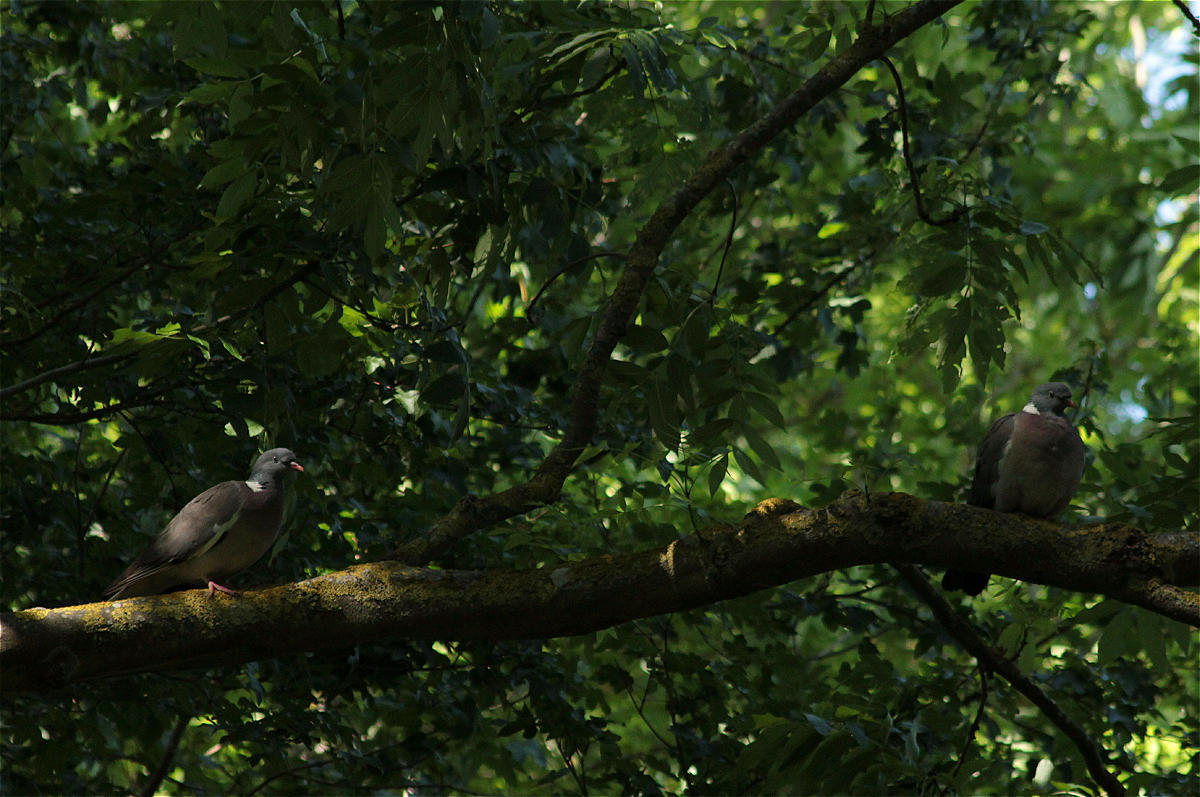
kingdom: Animalia
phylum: Chordata
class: Aves
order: Columbiformes
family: Columbidae
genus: Columba
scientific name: Columba palumbus
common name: Common wood pigeon
